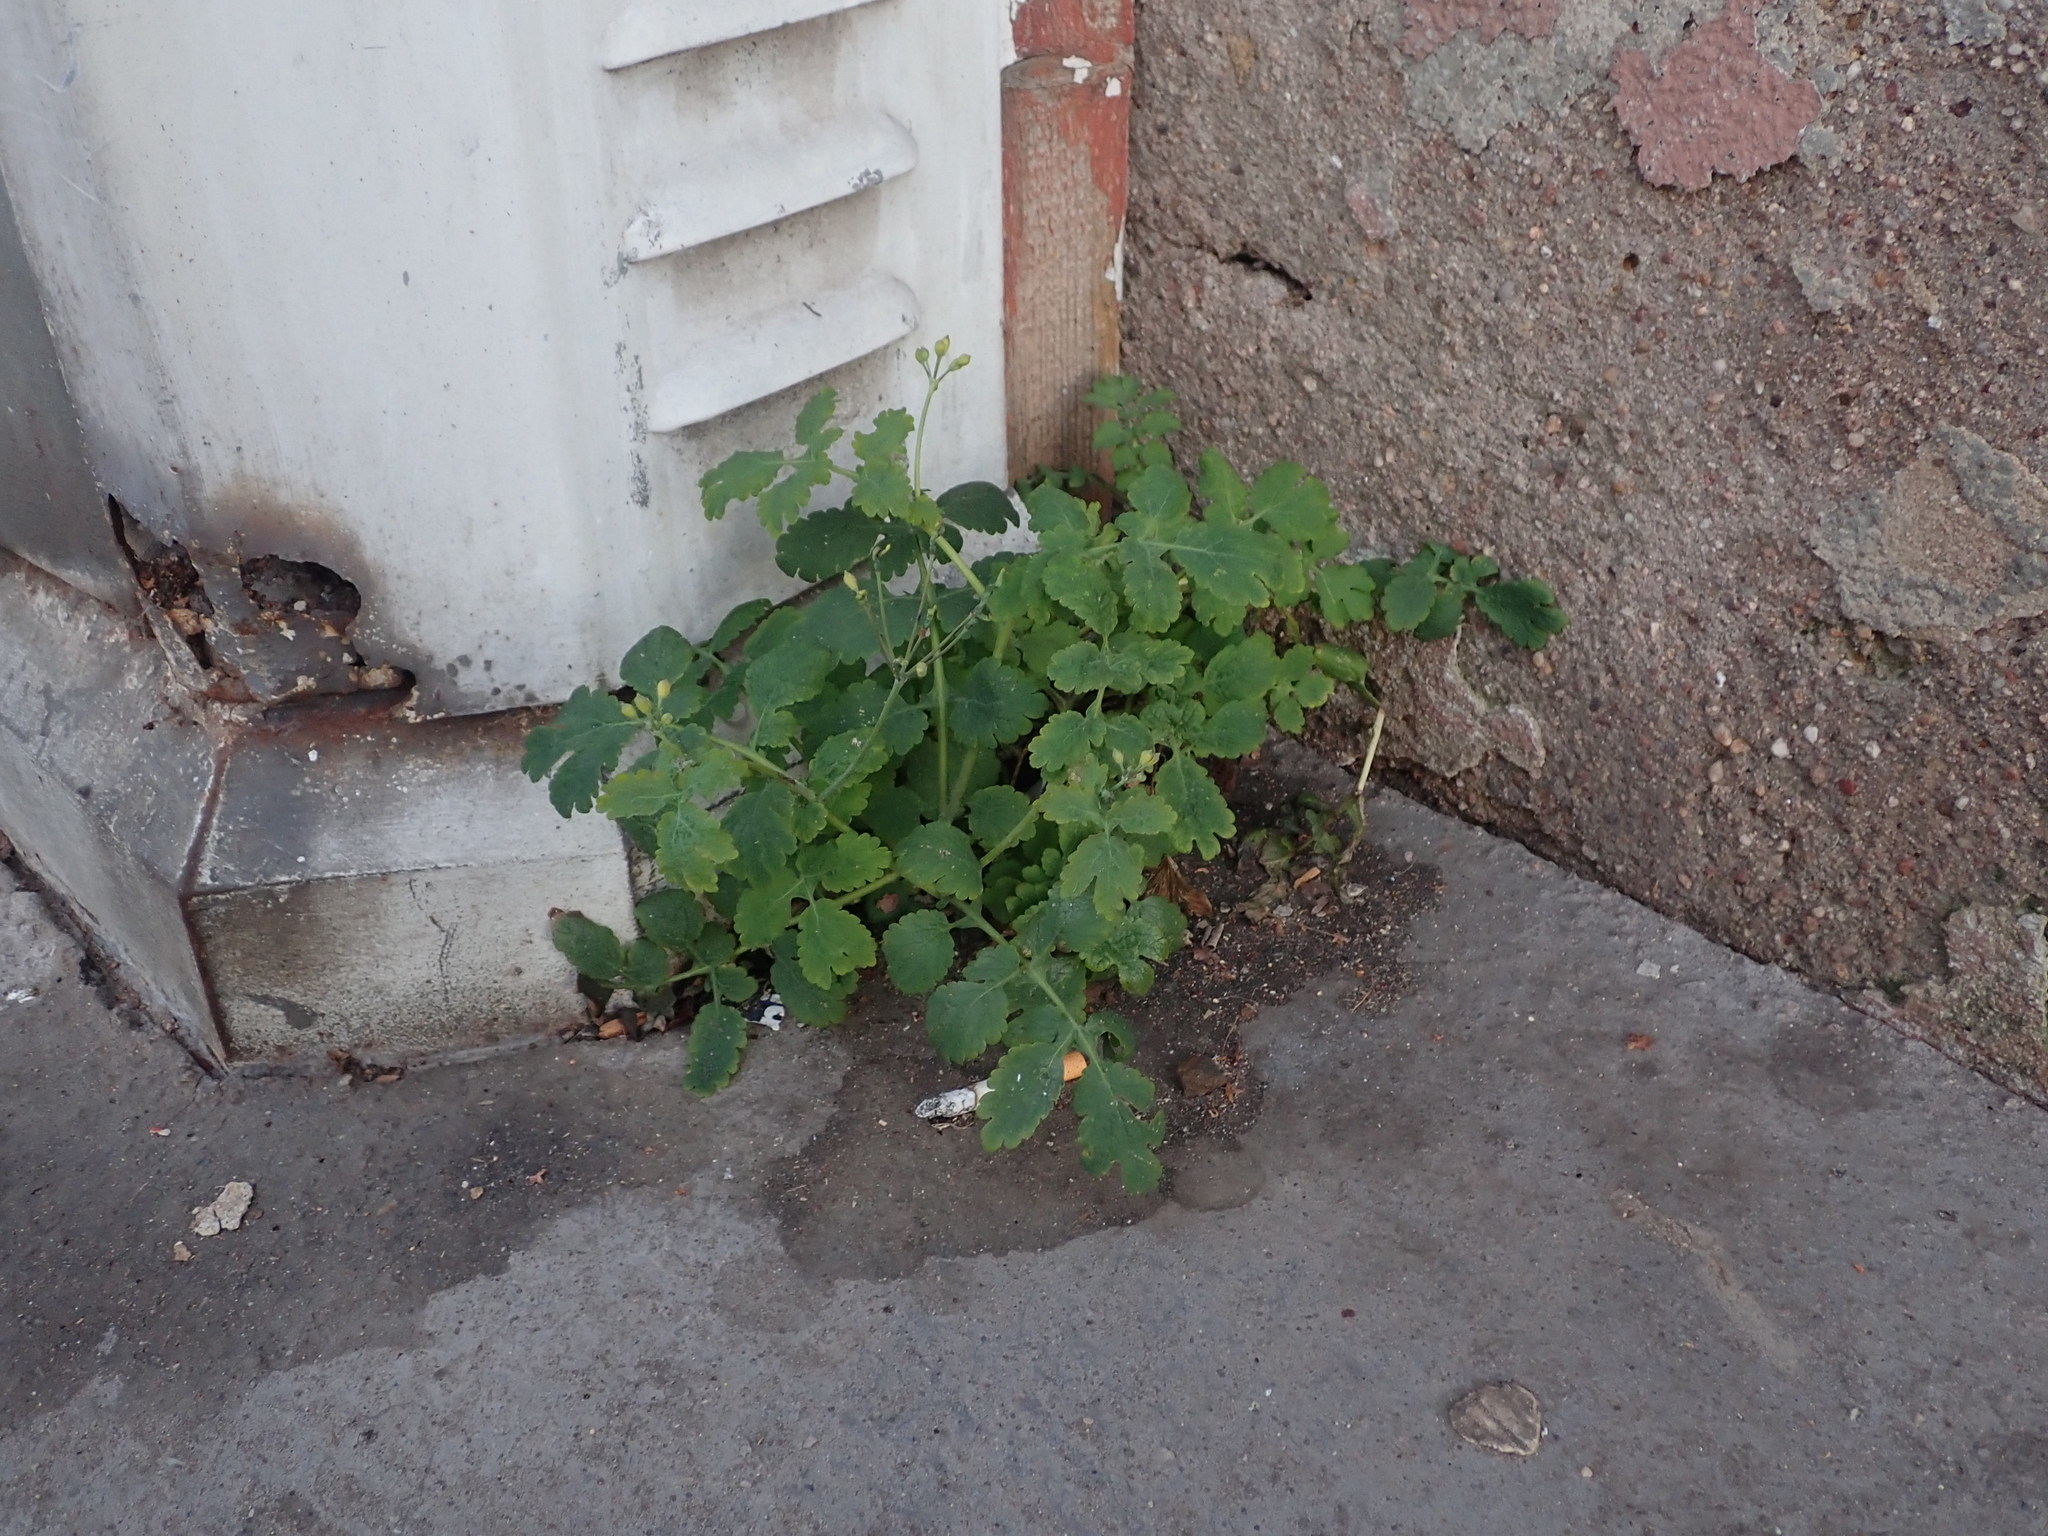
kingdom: Plantae
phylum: Tracheophyta
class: Magnoliopsida
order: Ranunculales
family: Papaveraceae
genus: Chelidonium
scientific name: Chelidonium majus
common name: Greater celandine
